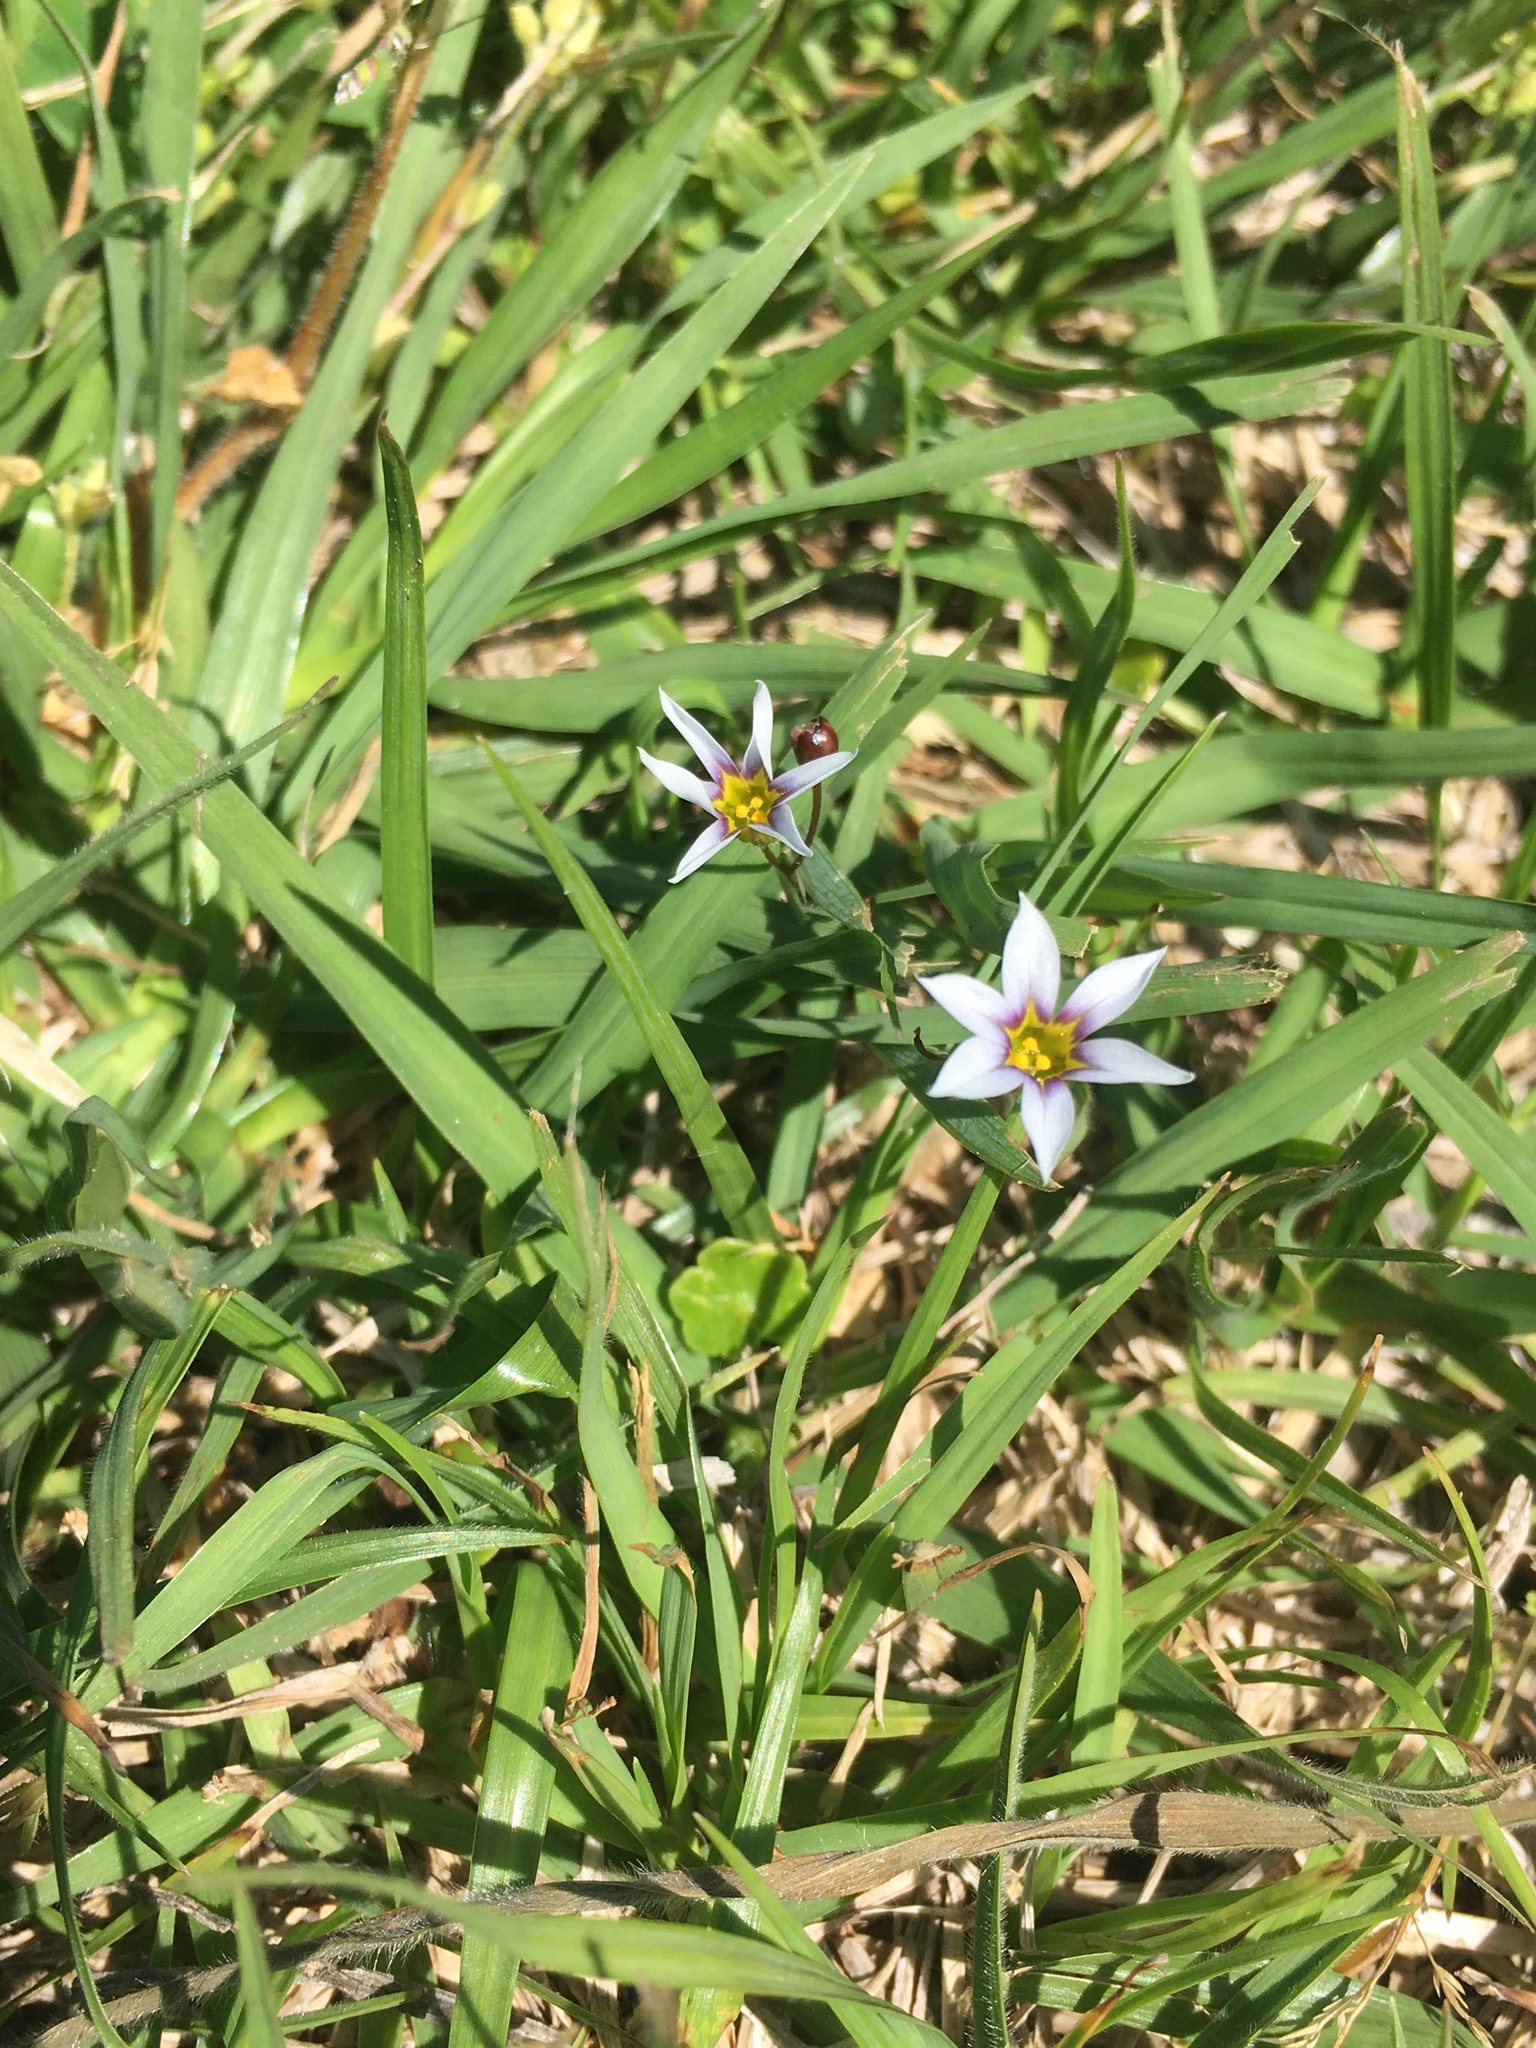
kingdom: Plantae
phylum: Tracheophyta
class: Liliopsida
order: Asparagales
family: Iridaceae
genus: Sisyrinchium
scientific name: Sisyrinchium micranthum
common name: Bermuda pigroot
